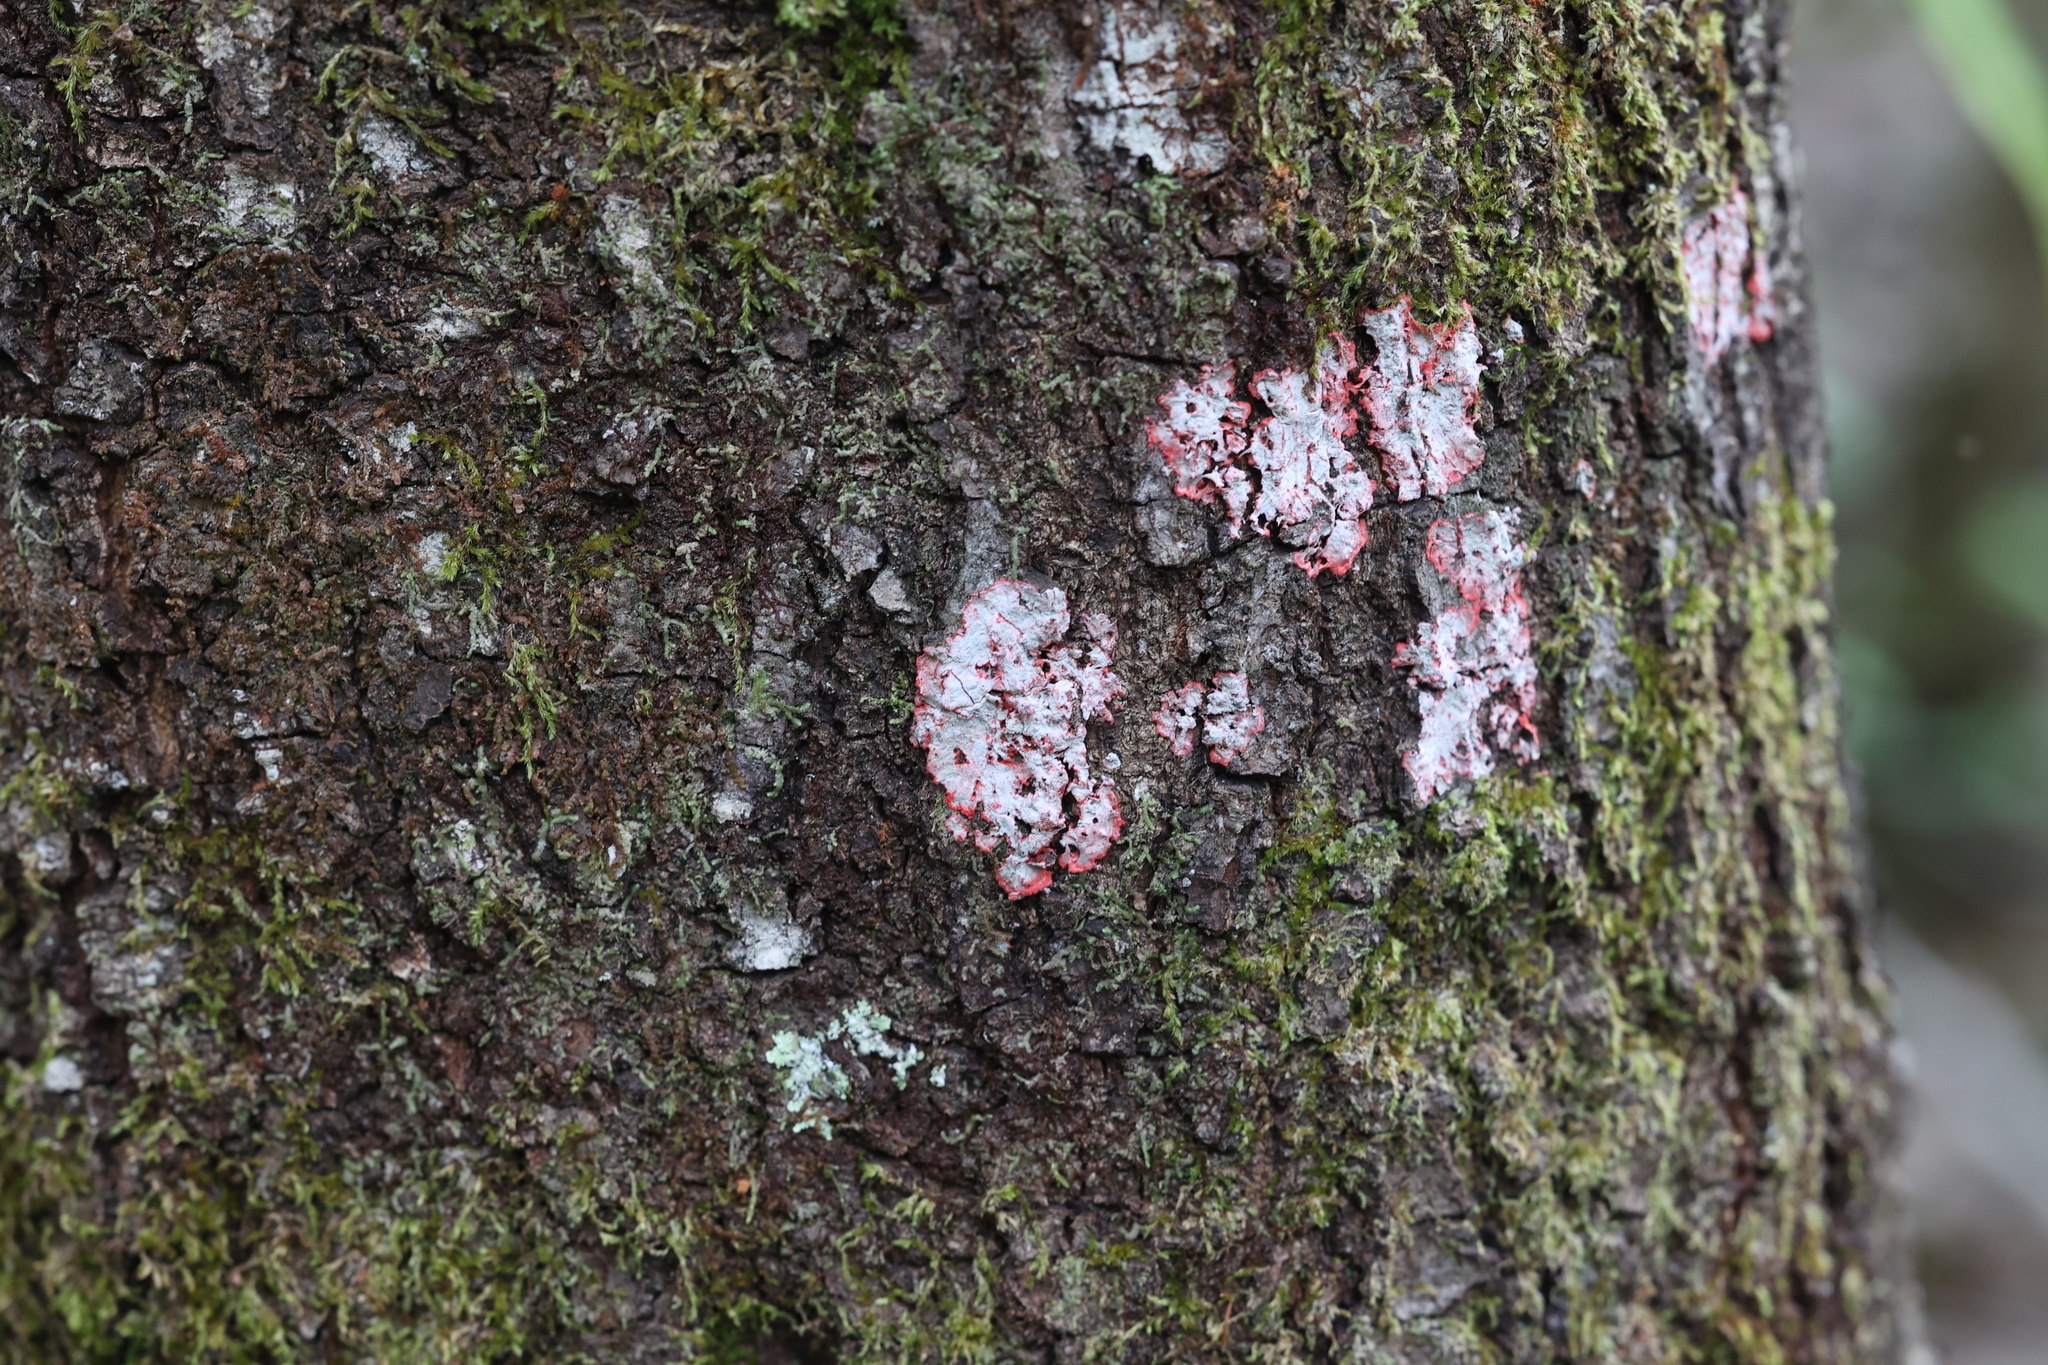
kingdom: Fungi
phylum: Ascomycota
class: Arthoniomycetes
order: Arthoniales
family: Arthoniaceae
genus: Herpothallon
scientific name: Herpothallon rubrocinctum
